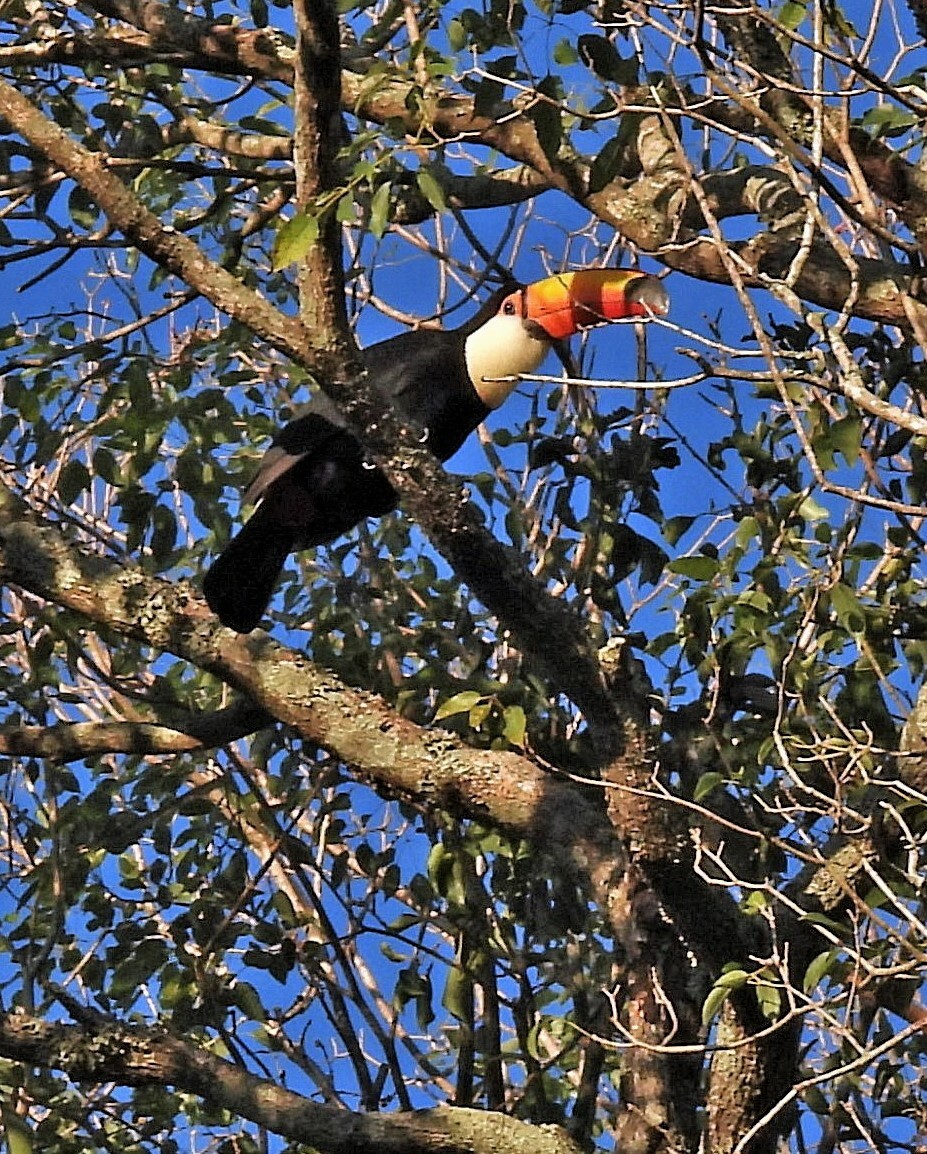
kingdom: Animalia
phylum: Chordata
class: Aves
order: Piciformes
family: Ramphastidae
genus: Ramphastos
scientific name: Ramphastos toco
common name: Toco toucan
